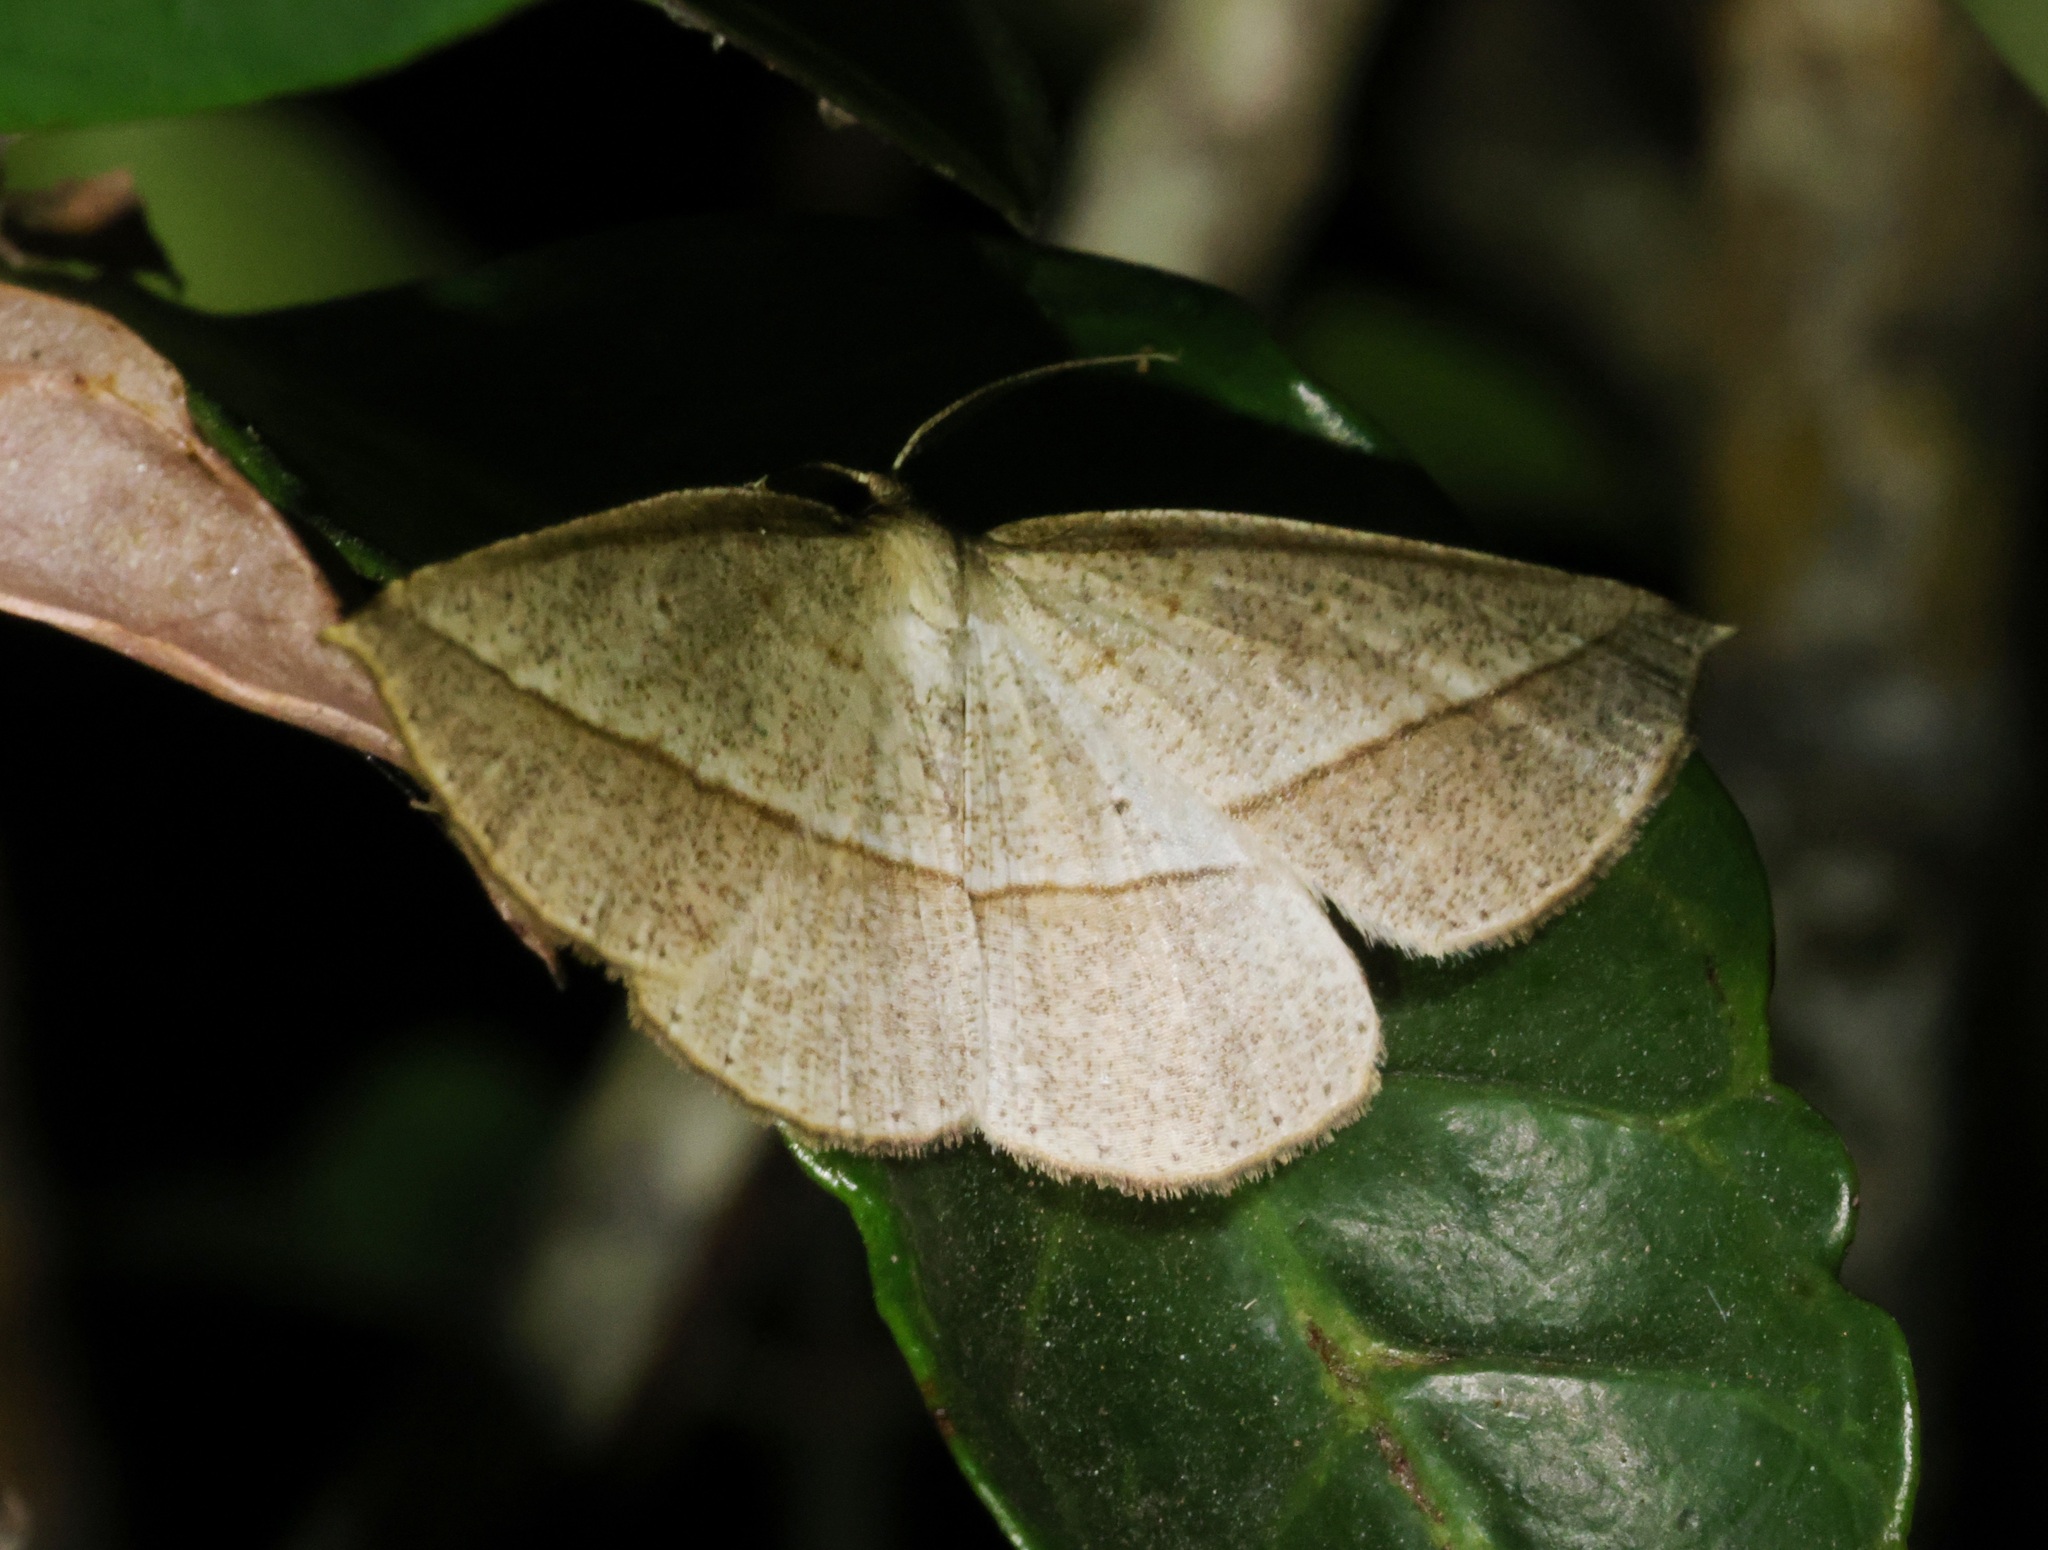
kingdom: Animalia
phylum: Arthropoda
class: Insecta
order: Lepidoptera
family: Geometridae
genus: Heteralex
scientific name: Heteralex unilinea
